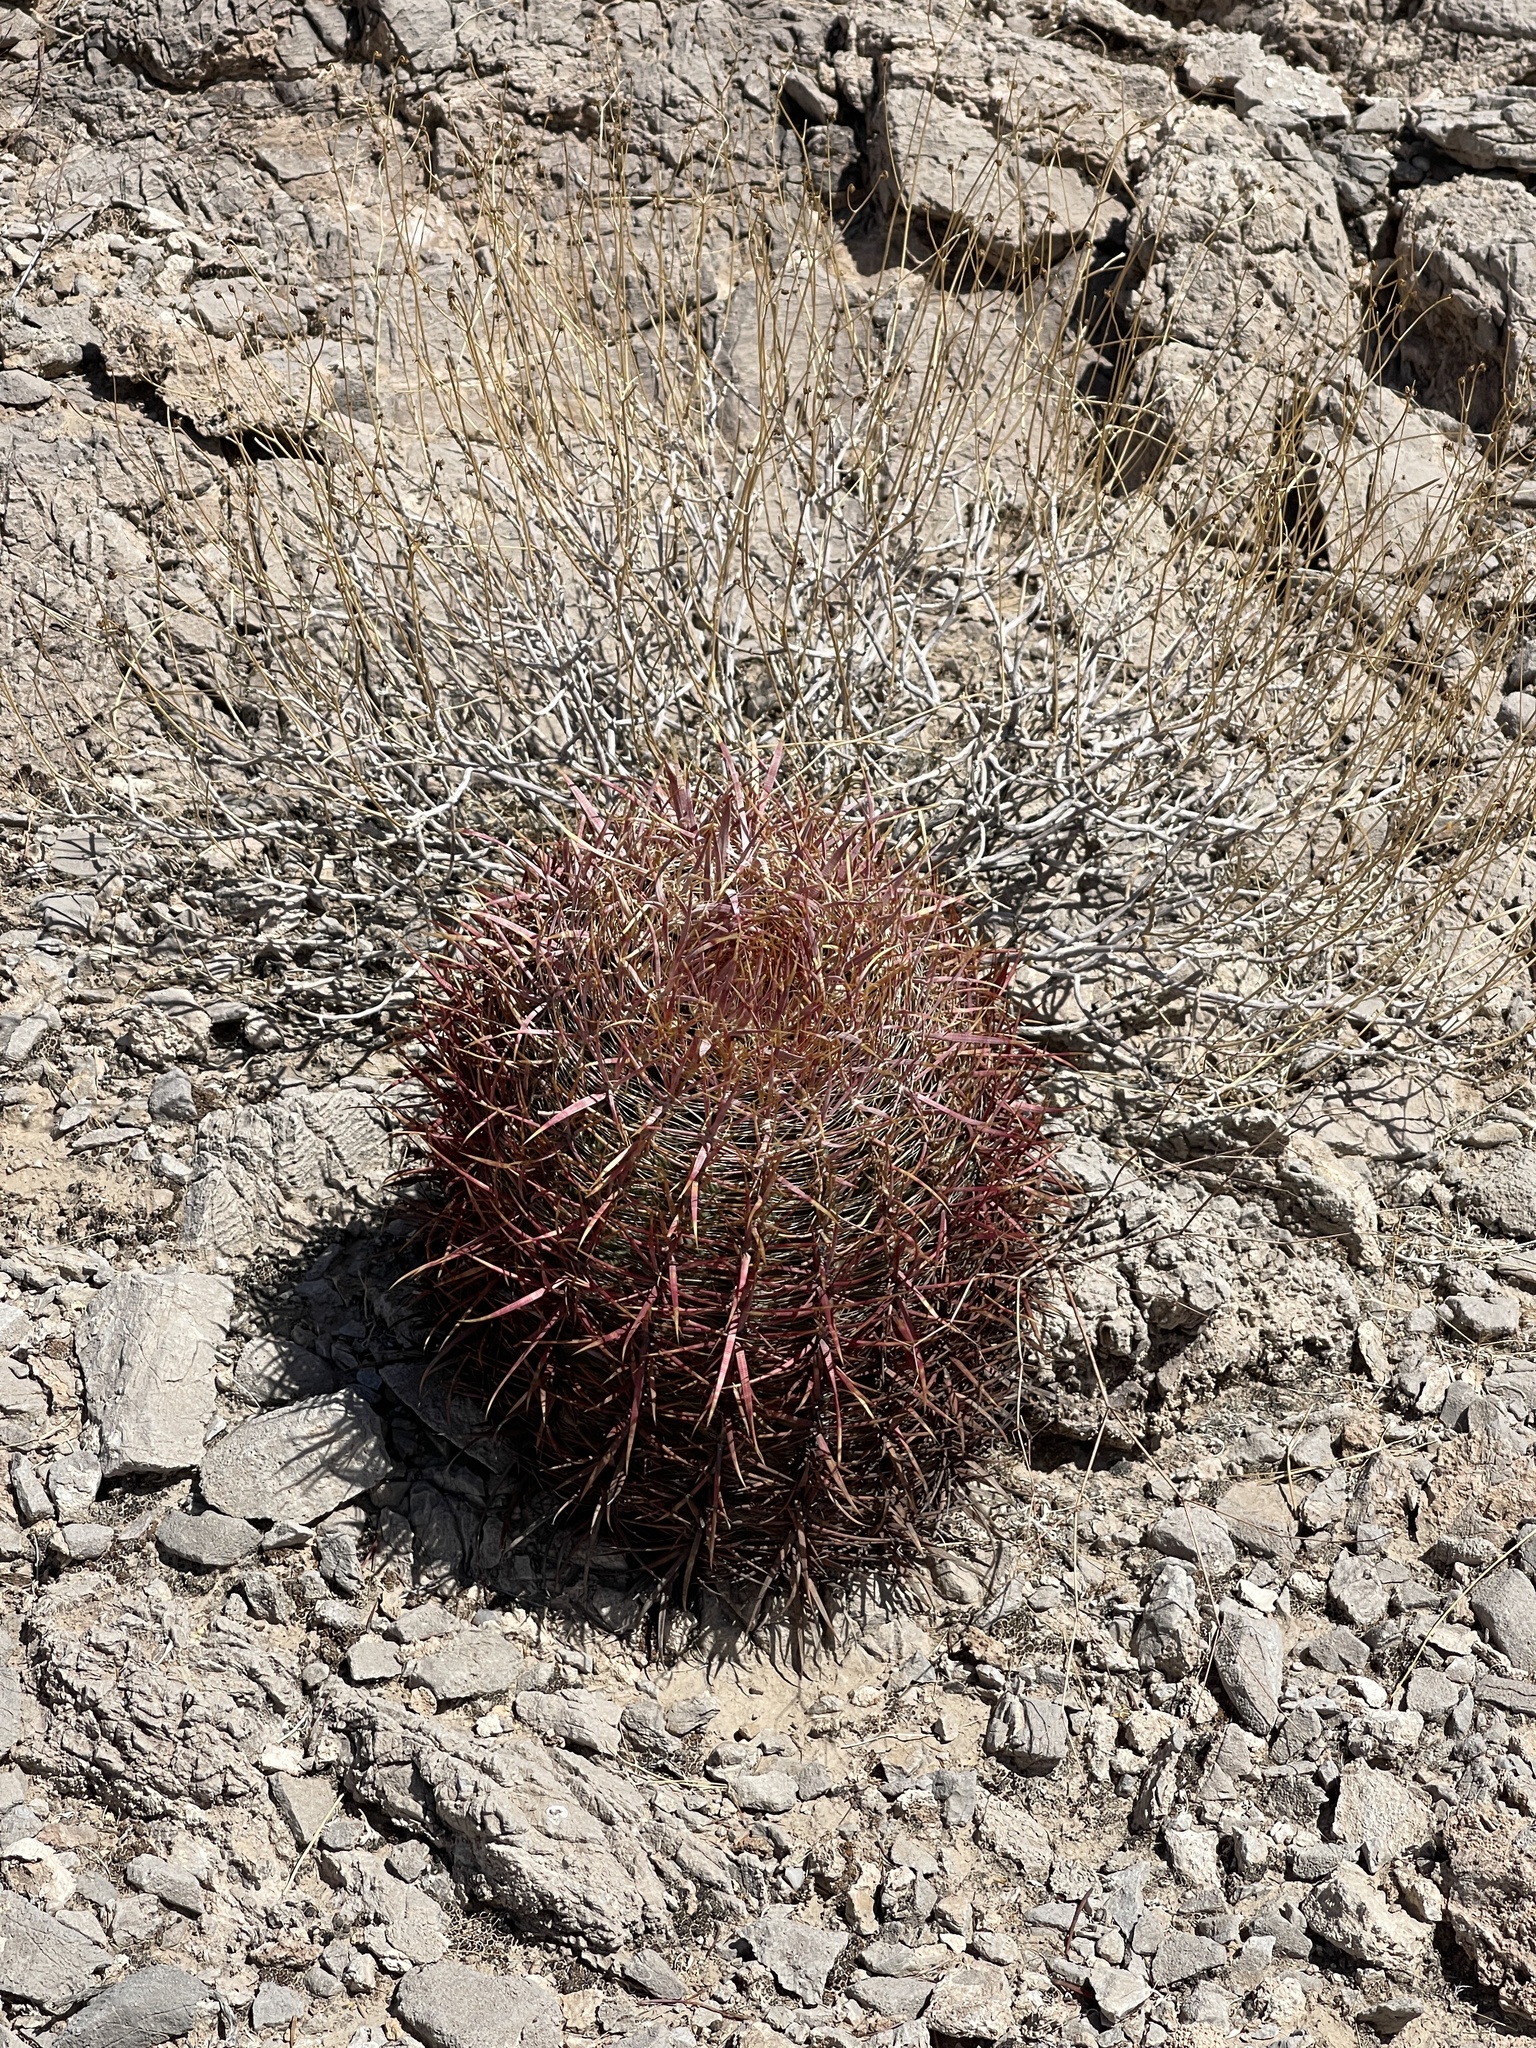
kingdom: Plantae
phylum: Tracheophyta
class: Magnoliopsida
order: Caryophyllales
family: Cactaceae
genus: Ferocactus
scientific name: Ferocactus cylindraceus
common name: California barrel cactus
